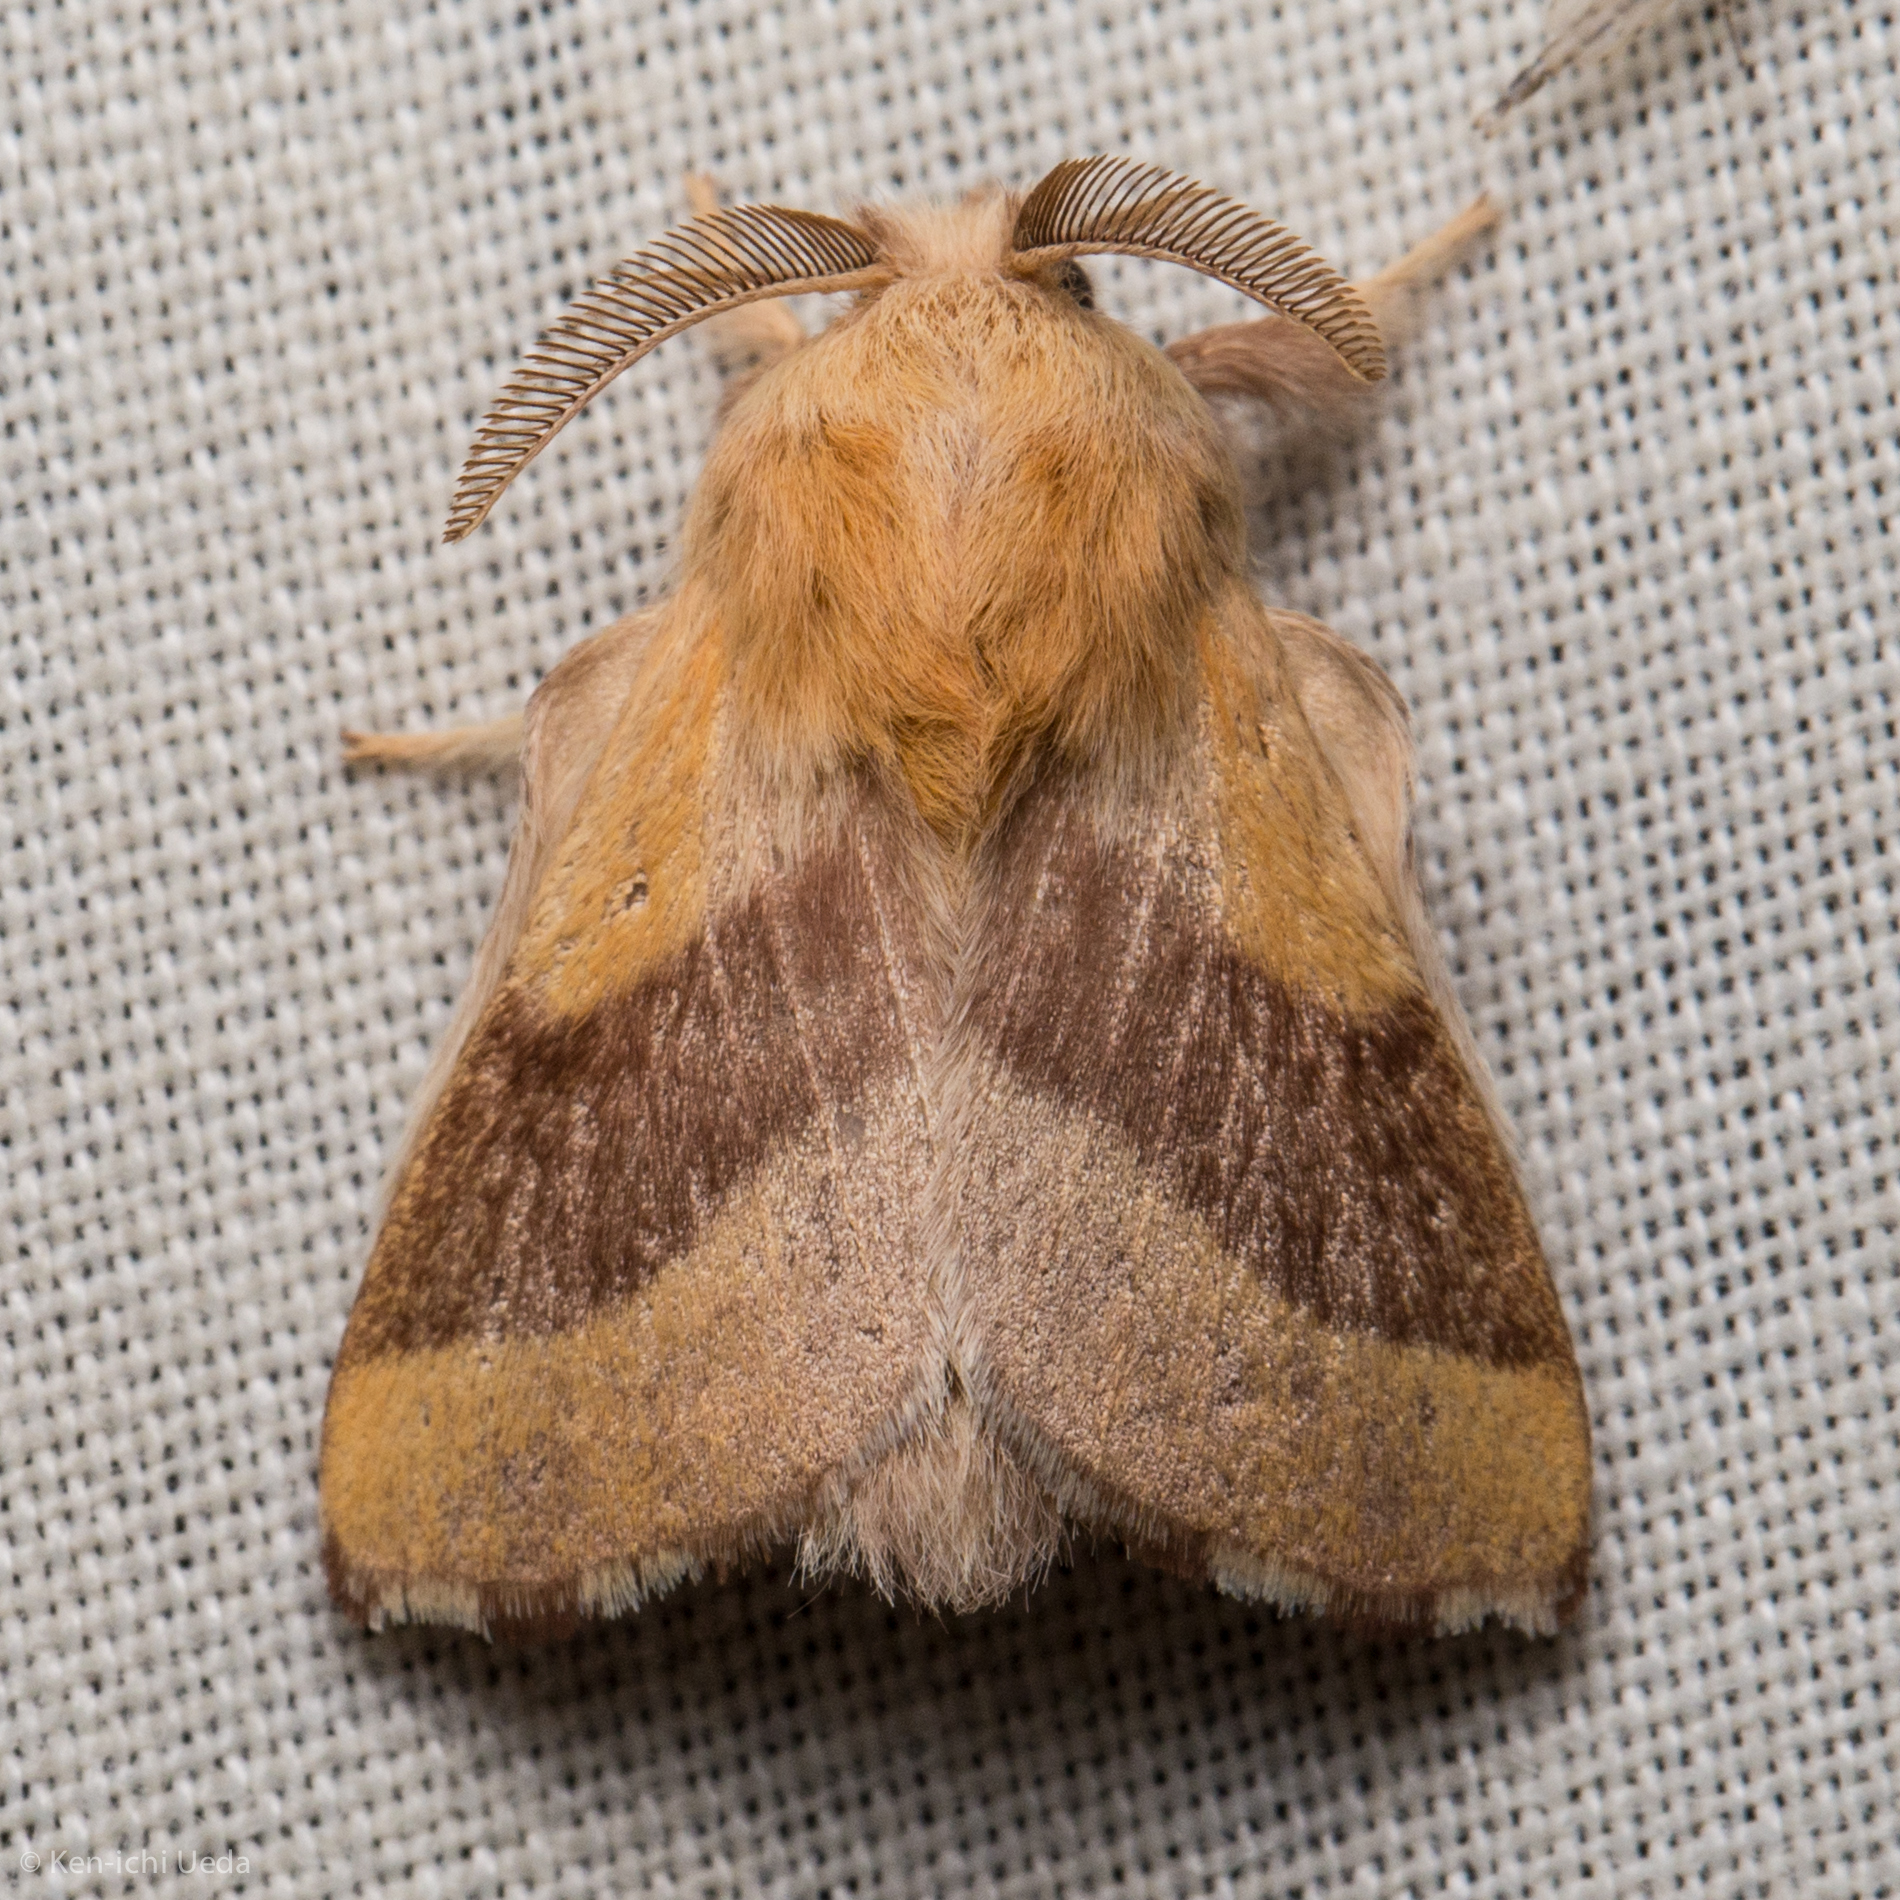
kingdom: Animalia
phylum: Arthropoda
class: Insecta
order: Lepidoptera
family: Lasiocampidae
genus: Malacosoma
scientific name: Malacosoma disstria
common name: Forest tent caterpillar
